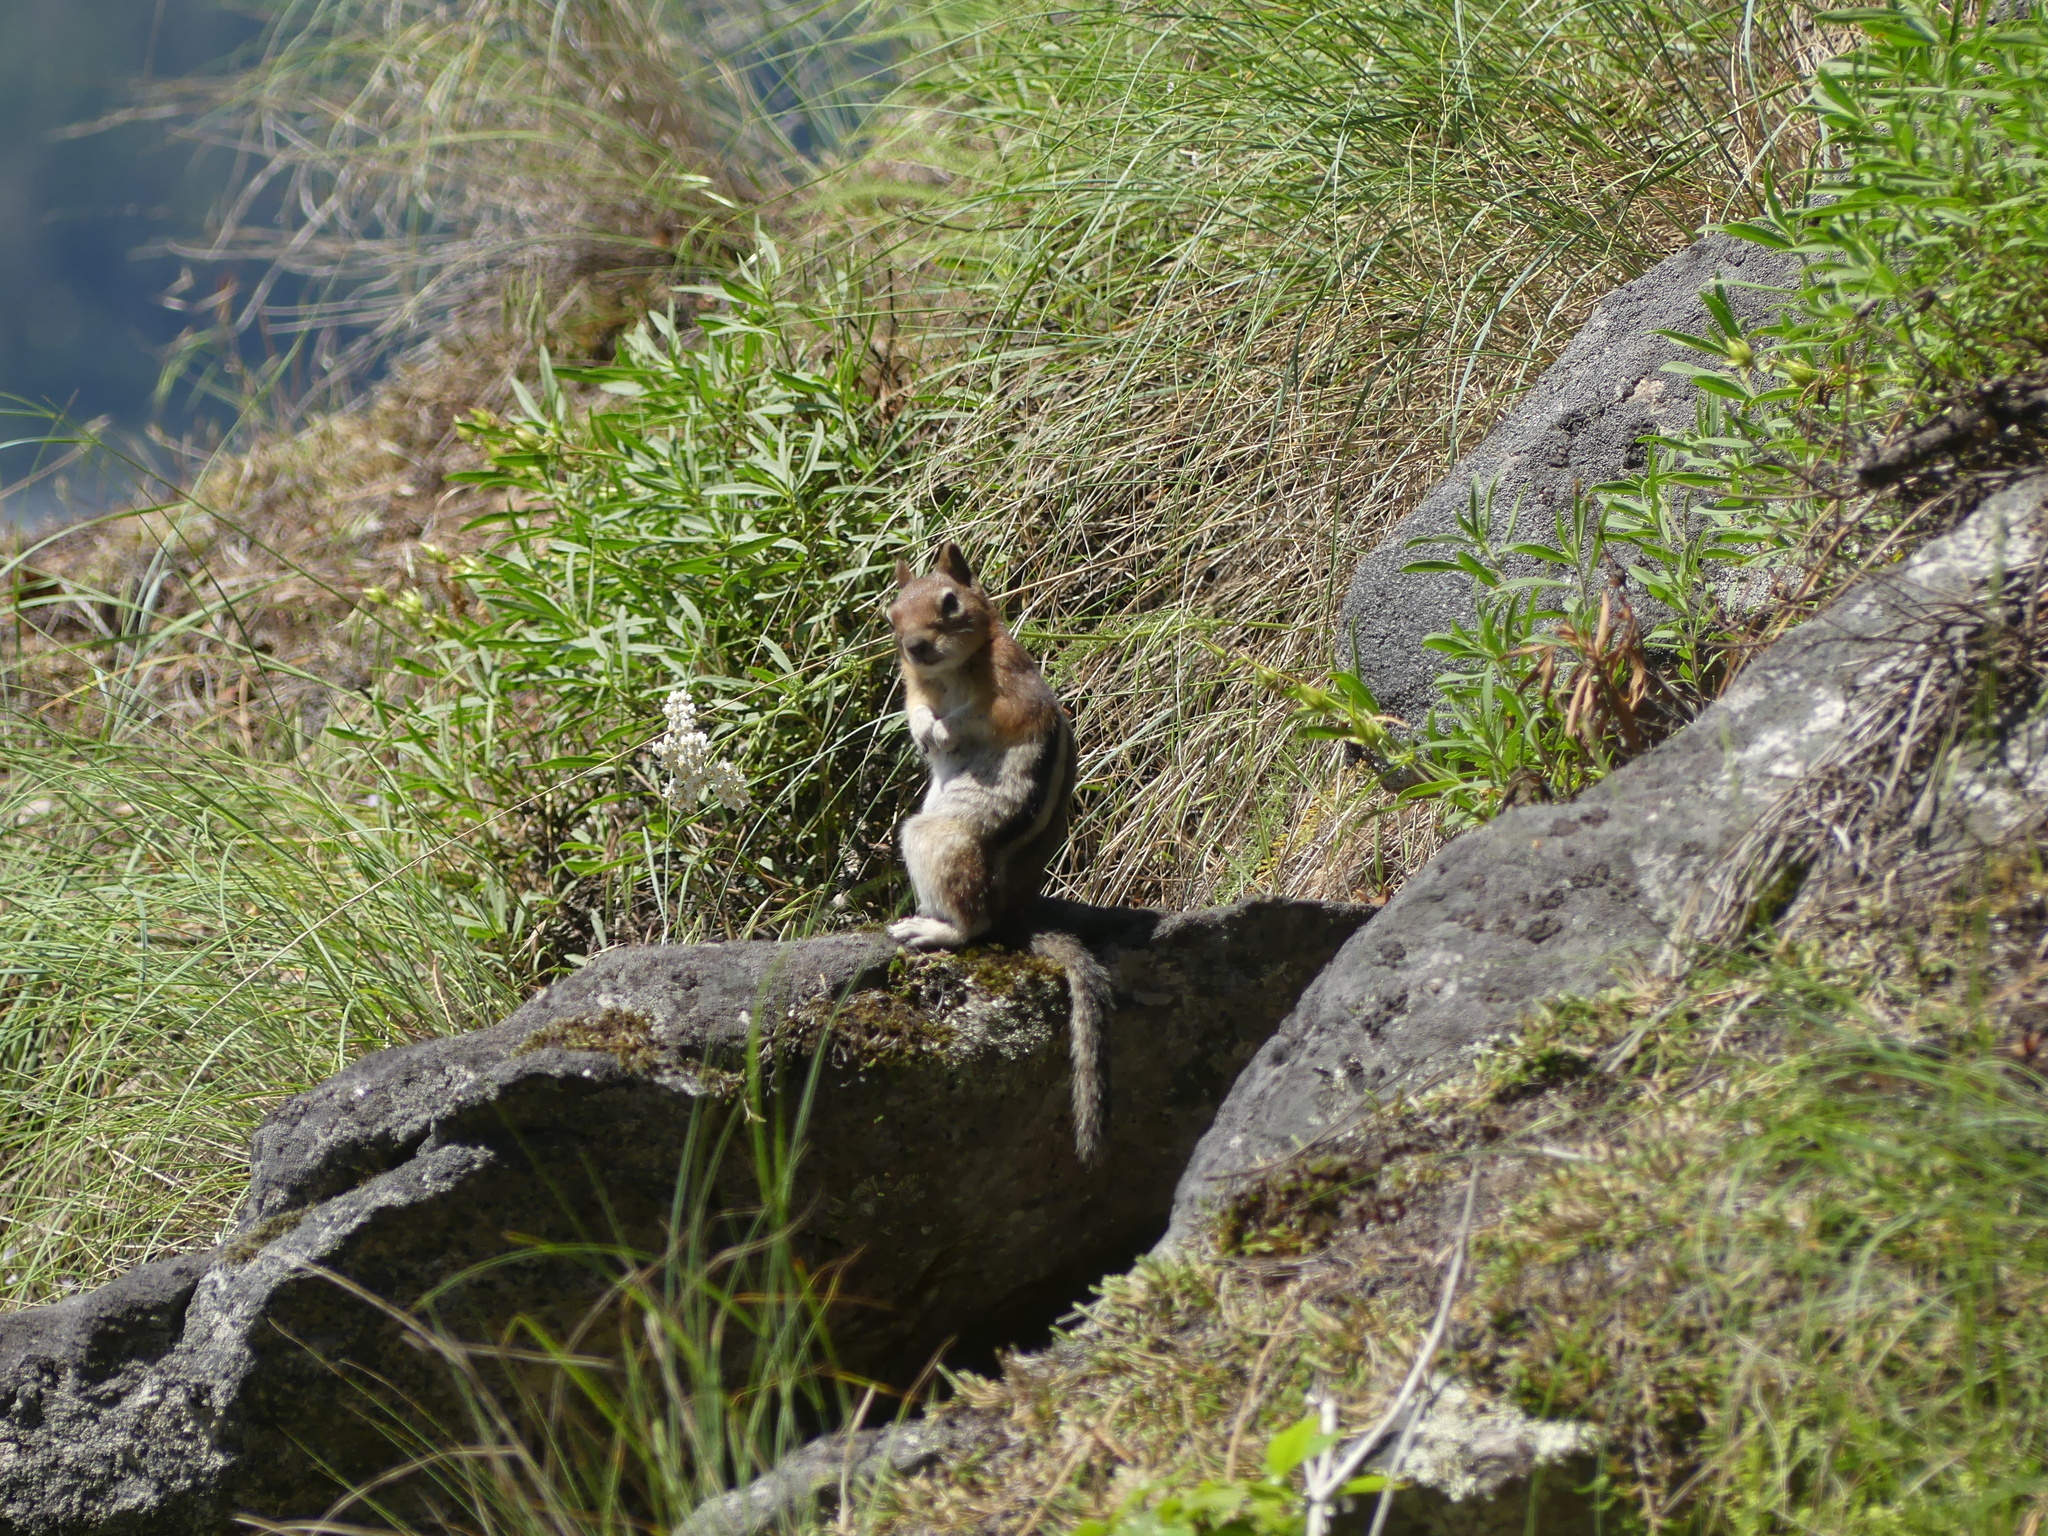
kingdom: Animalia
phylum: Chordata
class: Mammalia
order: Rodentia
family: Sciuridae
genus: Callospermophilus
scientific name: Callospermophilus lateralis
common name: Golden-mantled ground squirrel
